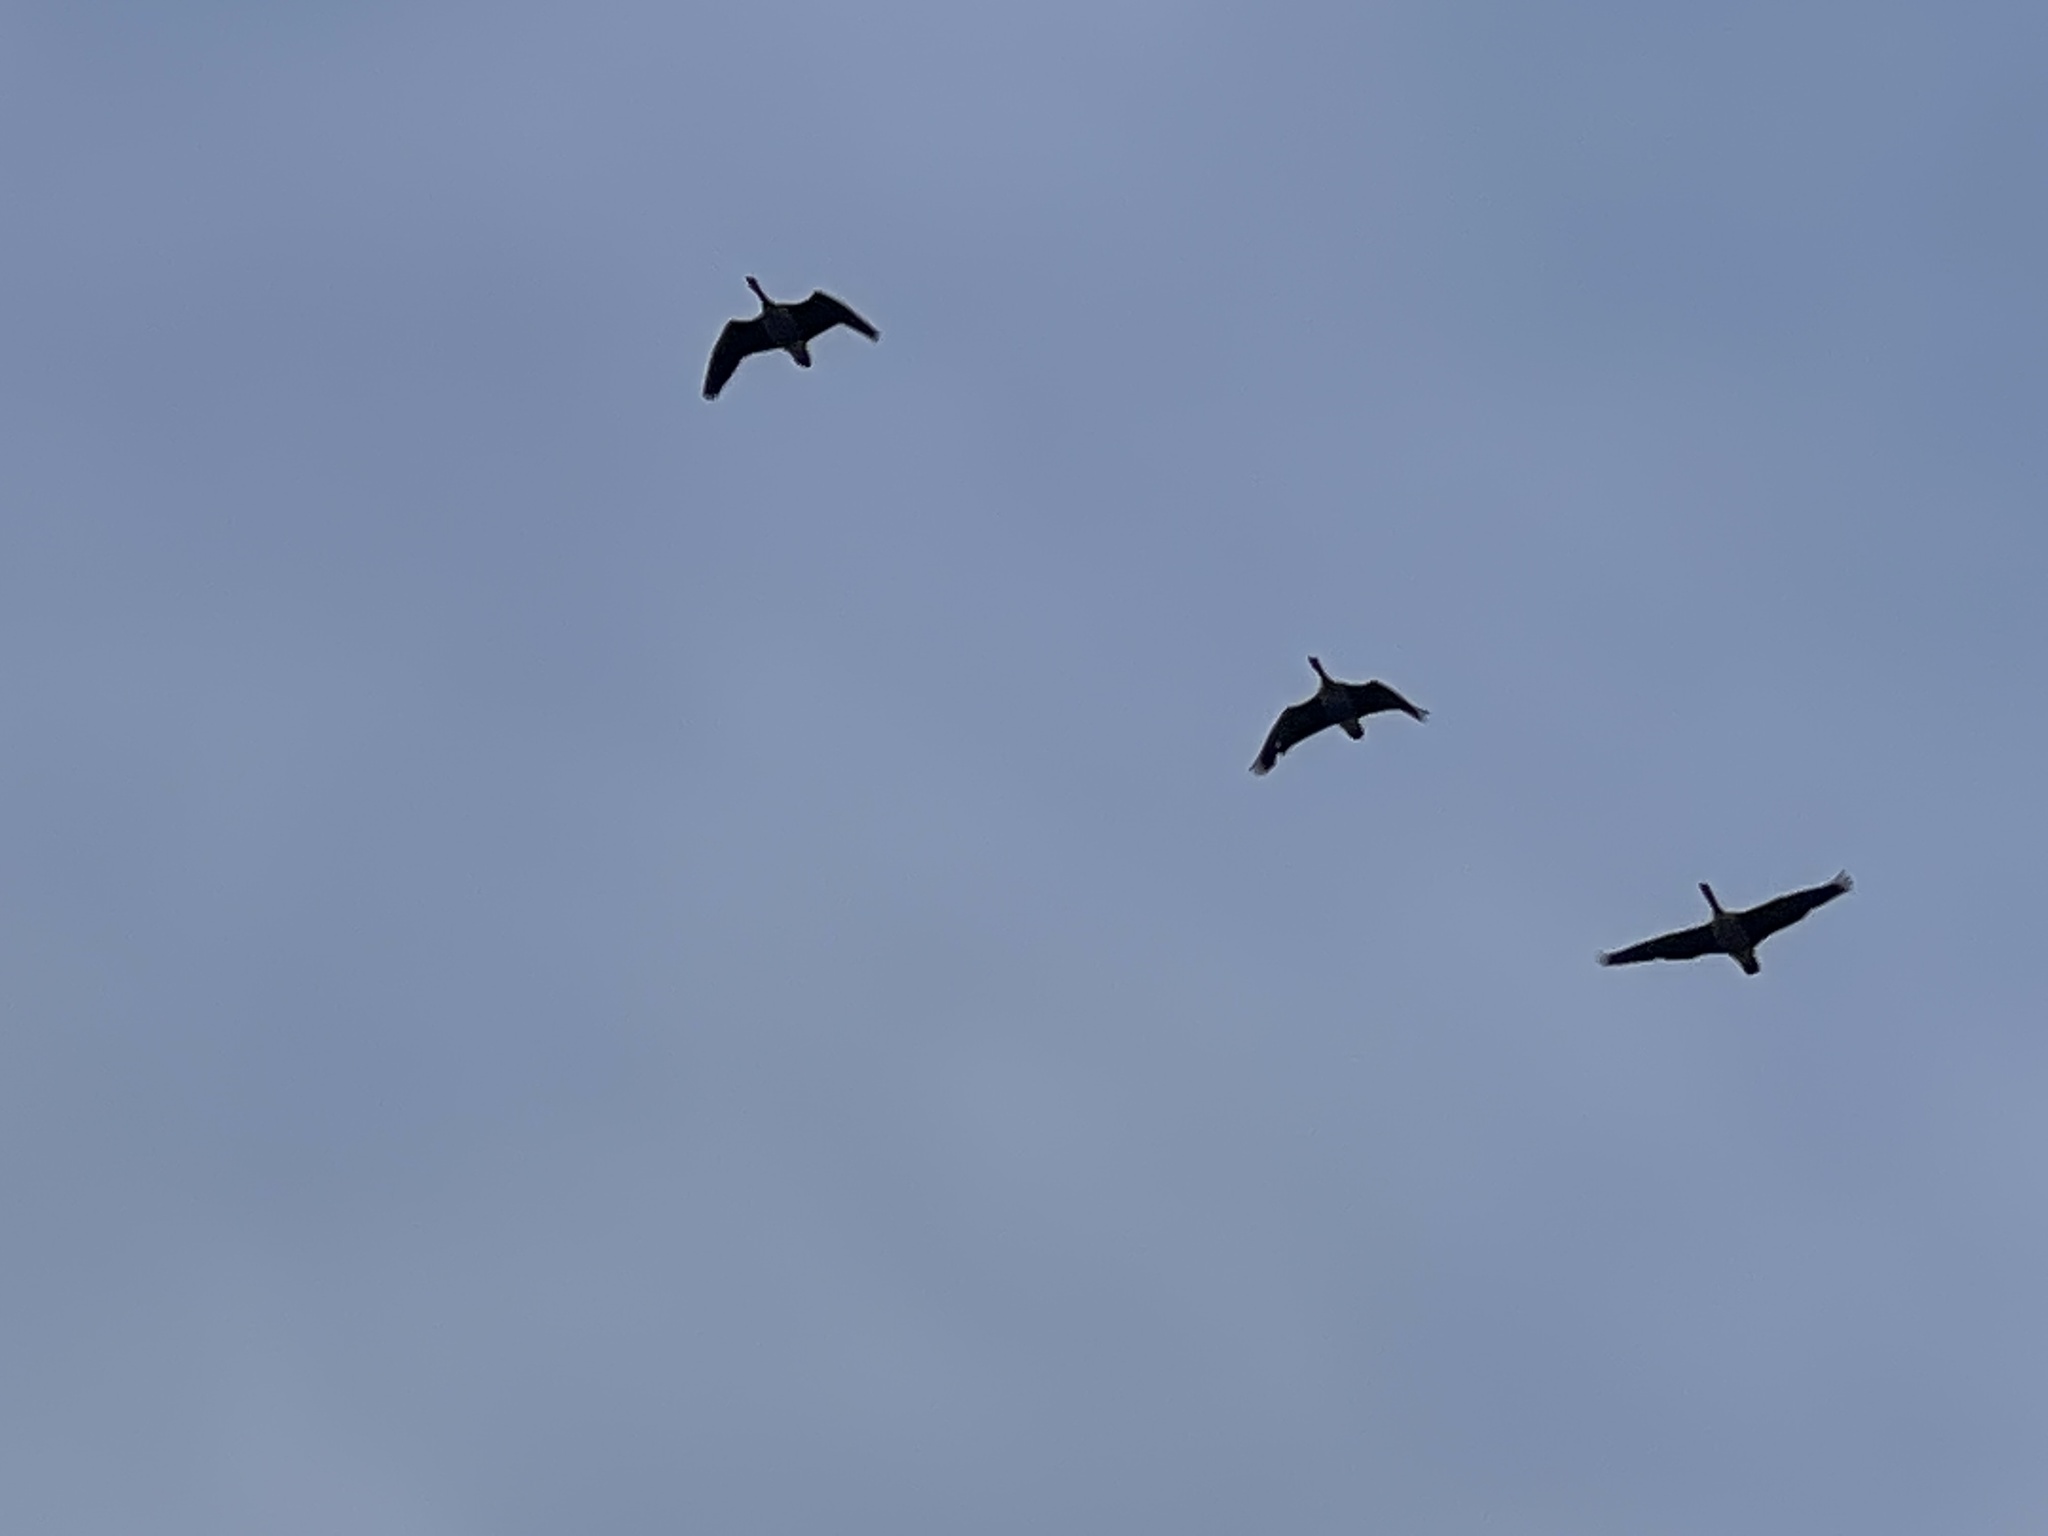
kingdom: Animalia
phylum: Chordata
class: Aves
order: Anseriformes
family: Anatidae
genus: Branta
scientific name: Branta canadensis
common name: Canada goose
